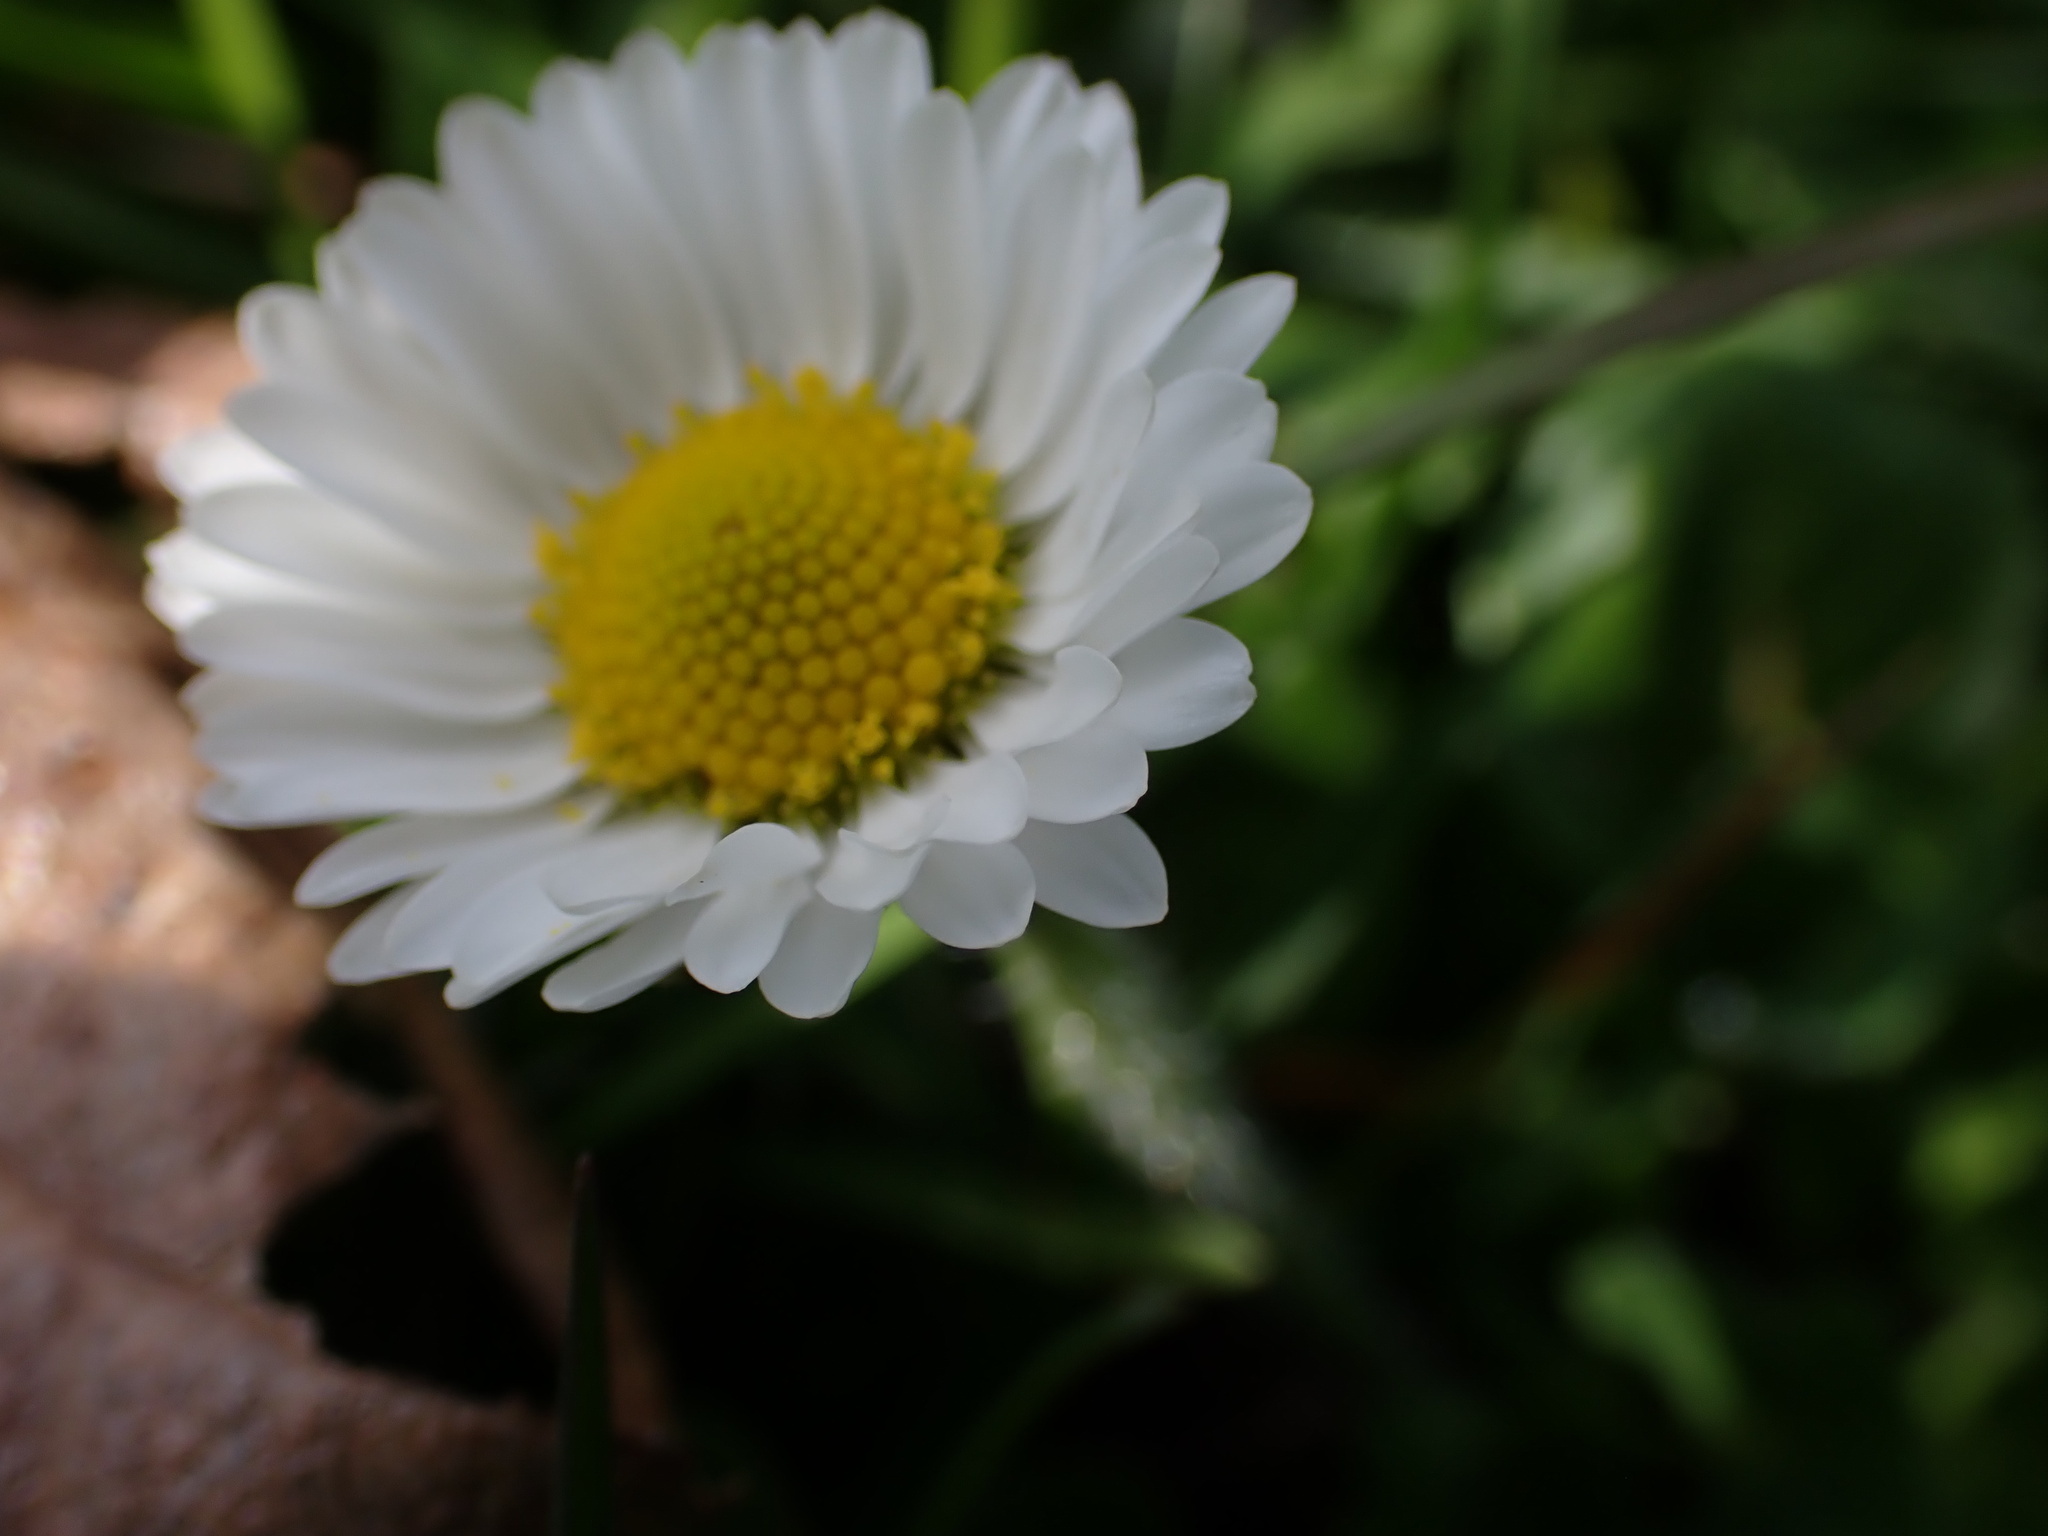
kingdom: Plantae
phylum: Tracheophyta
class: Magnoliopsida
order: Asterales
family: Asteraceae
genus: Bellis
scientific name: Bellis perennis
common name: Lawndaisy
